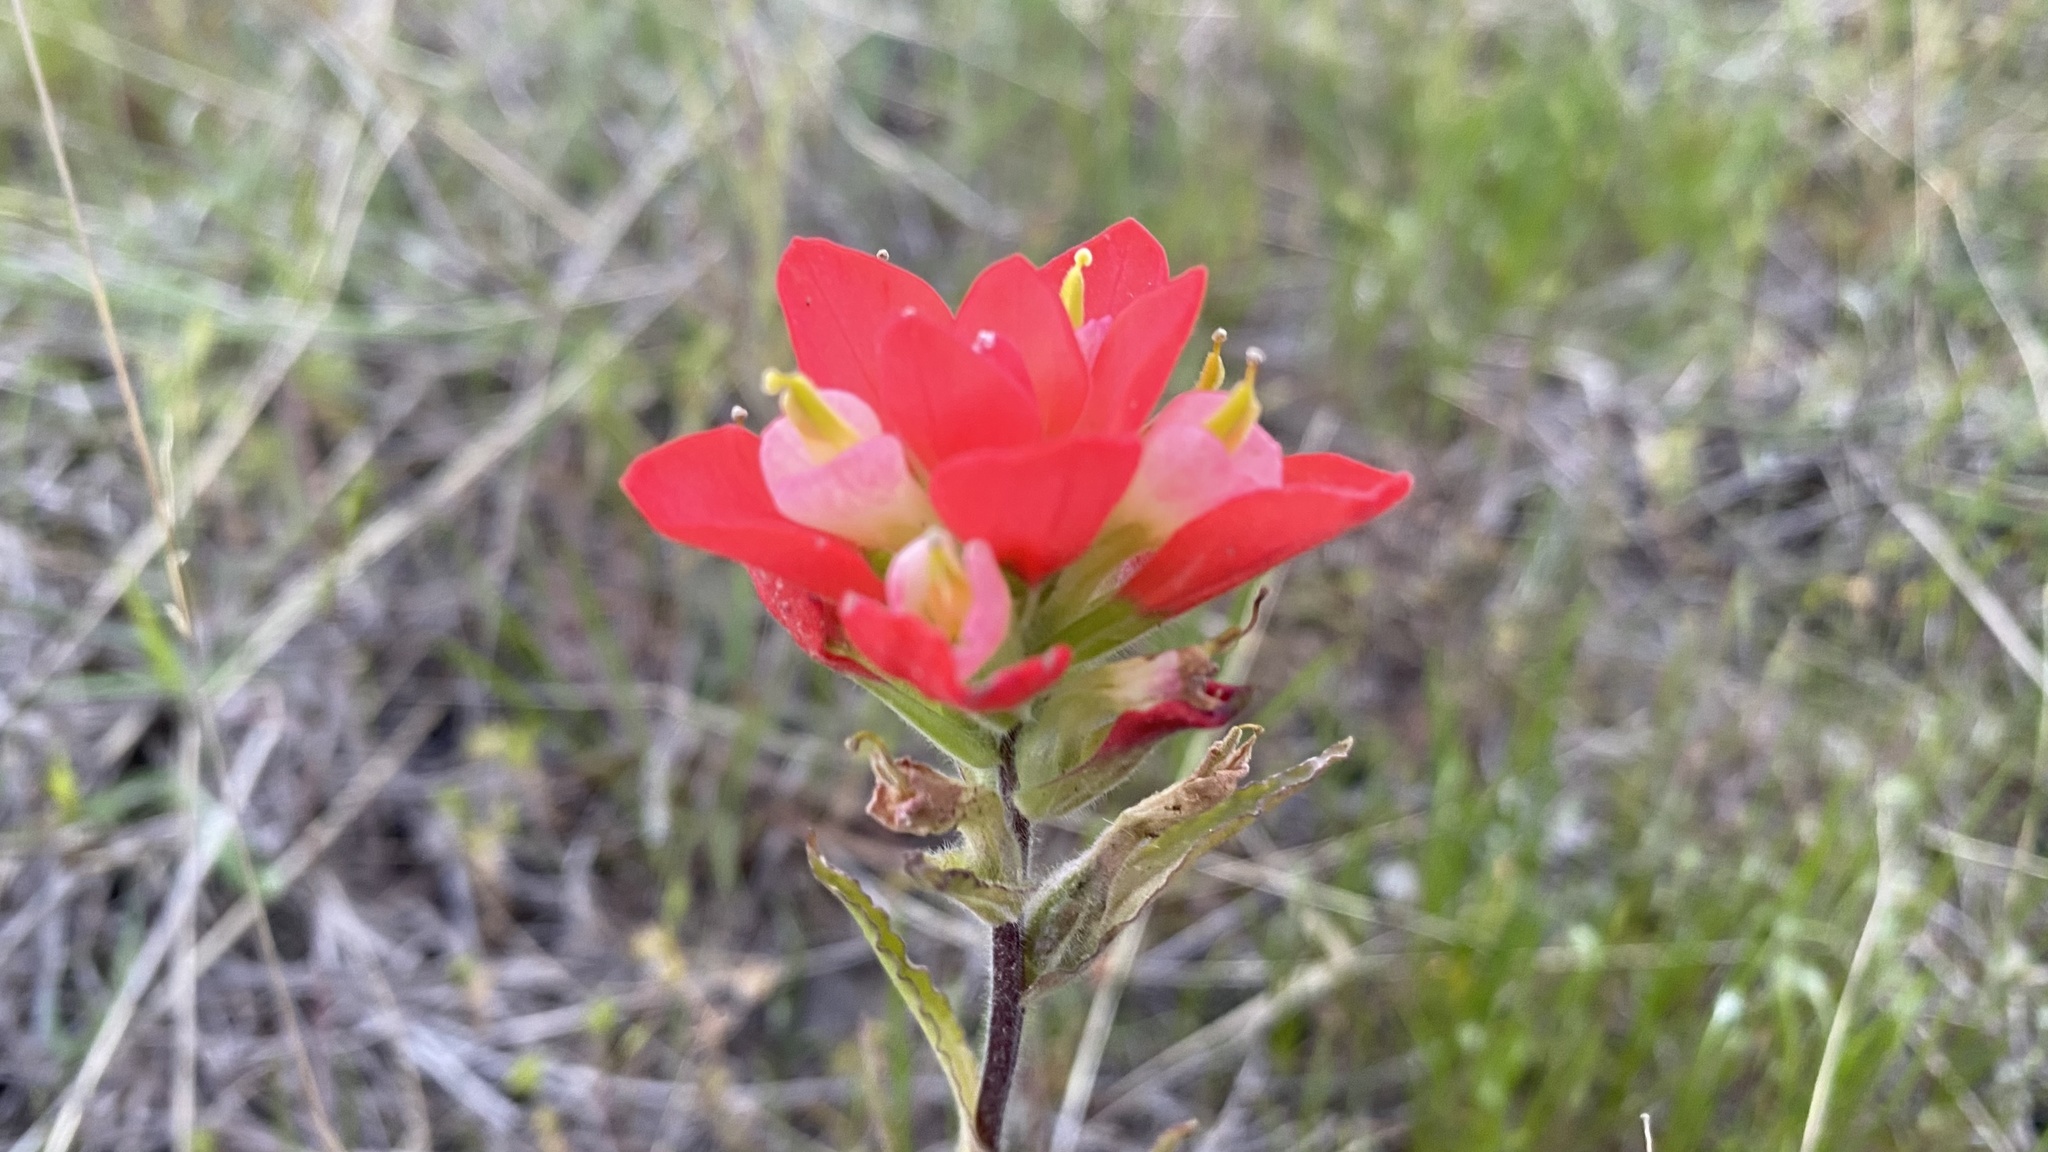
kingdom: Plantae
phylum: Tracheophyta
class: Magnoliopsida
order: Lamiales
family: Orobanchaceae
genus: Castilleja
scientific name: Castilleja indivisa
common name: Texas paintbrush
